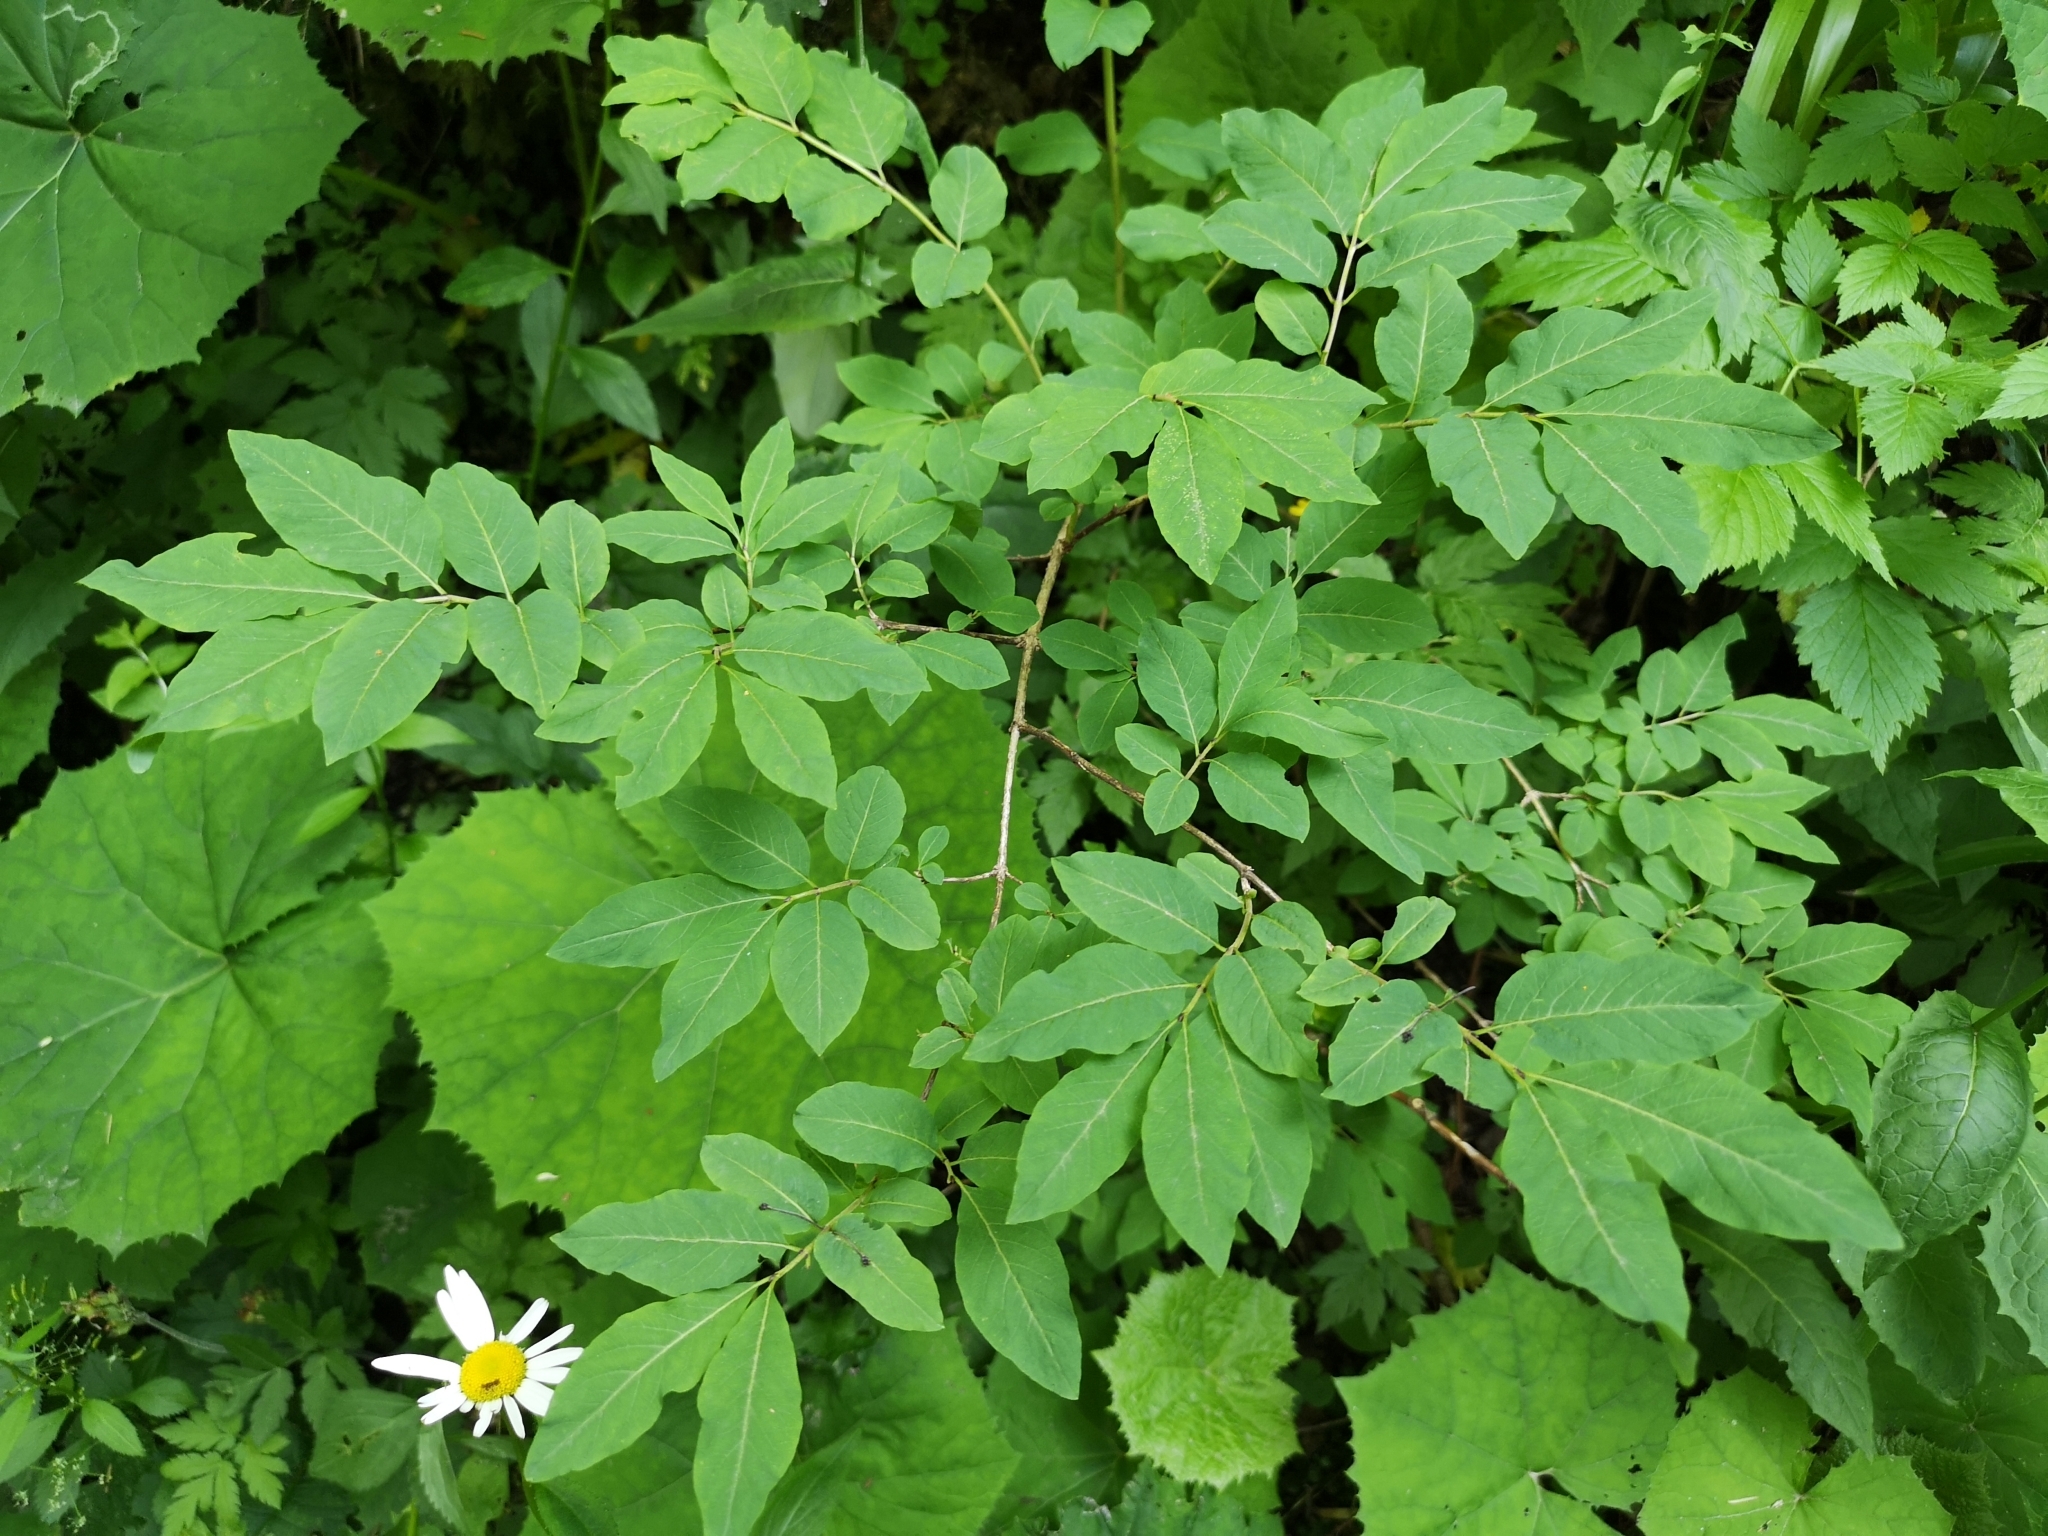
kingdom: Plantae
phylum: Tracheophyta
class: Magnoliopsida
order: Dipsacales
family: Caprifoliaceae
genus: Lonicera
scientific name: Lonicera nigra
